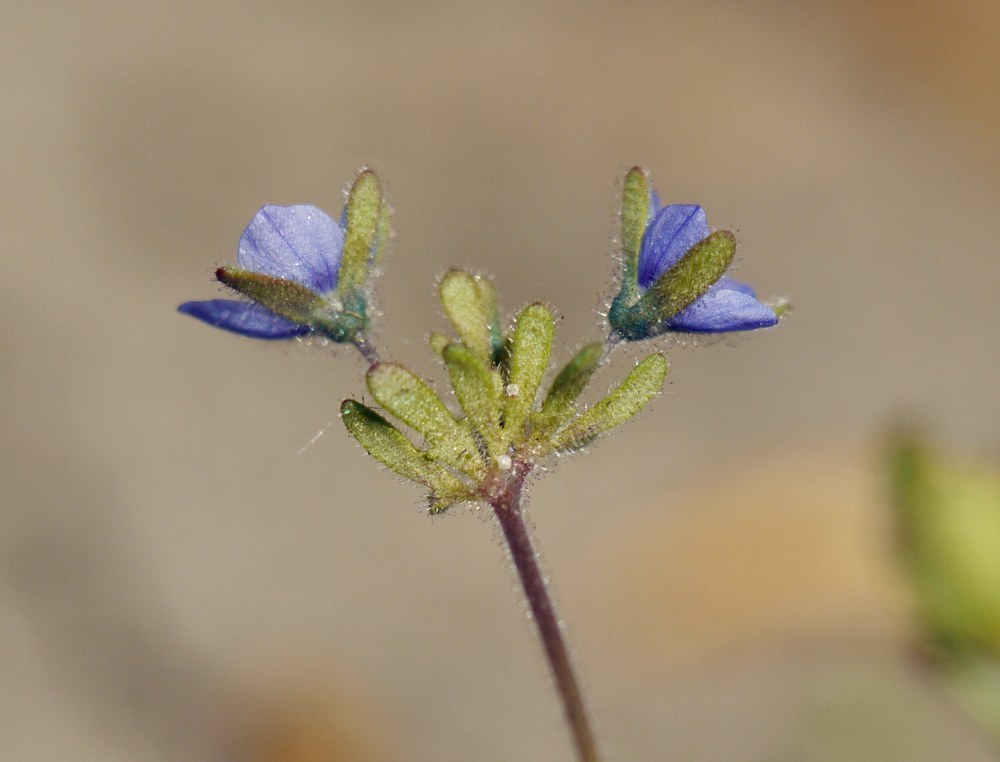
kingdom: Plantae
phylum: Tracheophyta
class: Magnoliopsida
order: Lamiales
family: Plantaginaceae
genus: Veronica
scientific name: Veronica triphyllos
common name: Fingered speedwell
